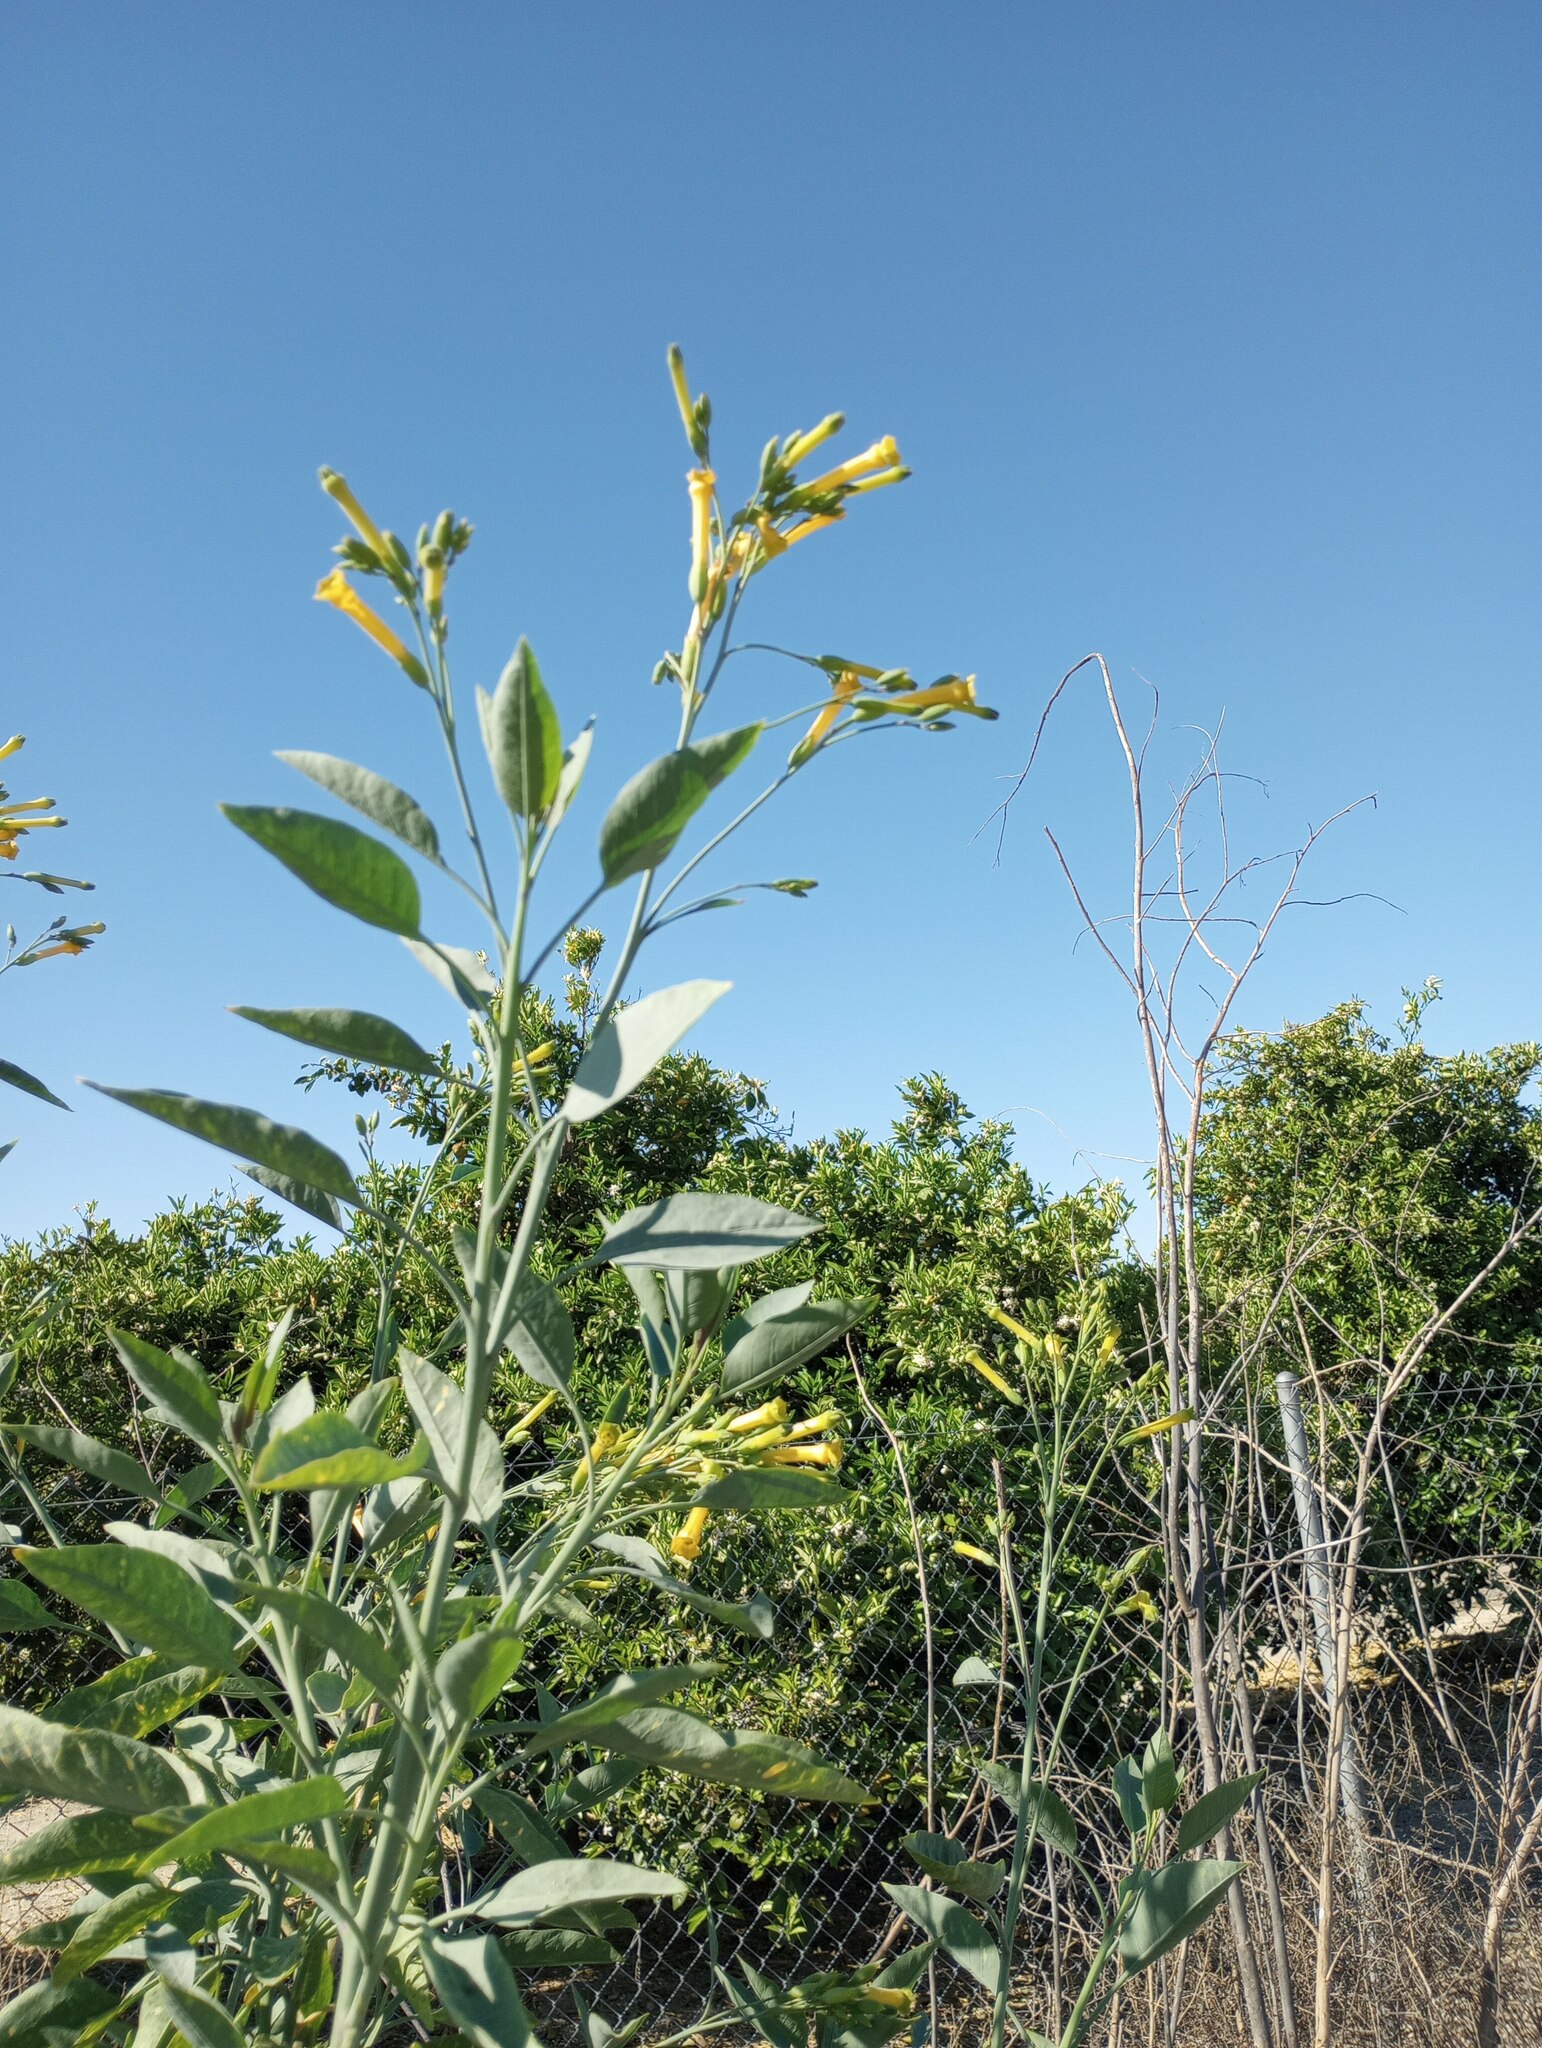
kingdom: Plantae
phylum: Tracheophyta
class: Magnoliopsida
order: Solanales
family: Solanaceae
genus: Nicotiana
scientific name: Nicotiana glauca
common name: Tree tobacco
